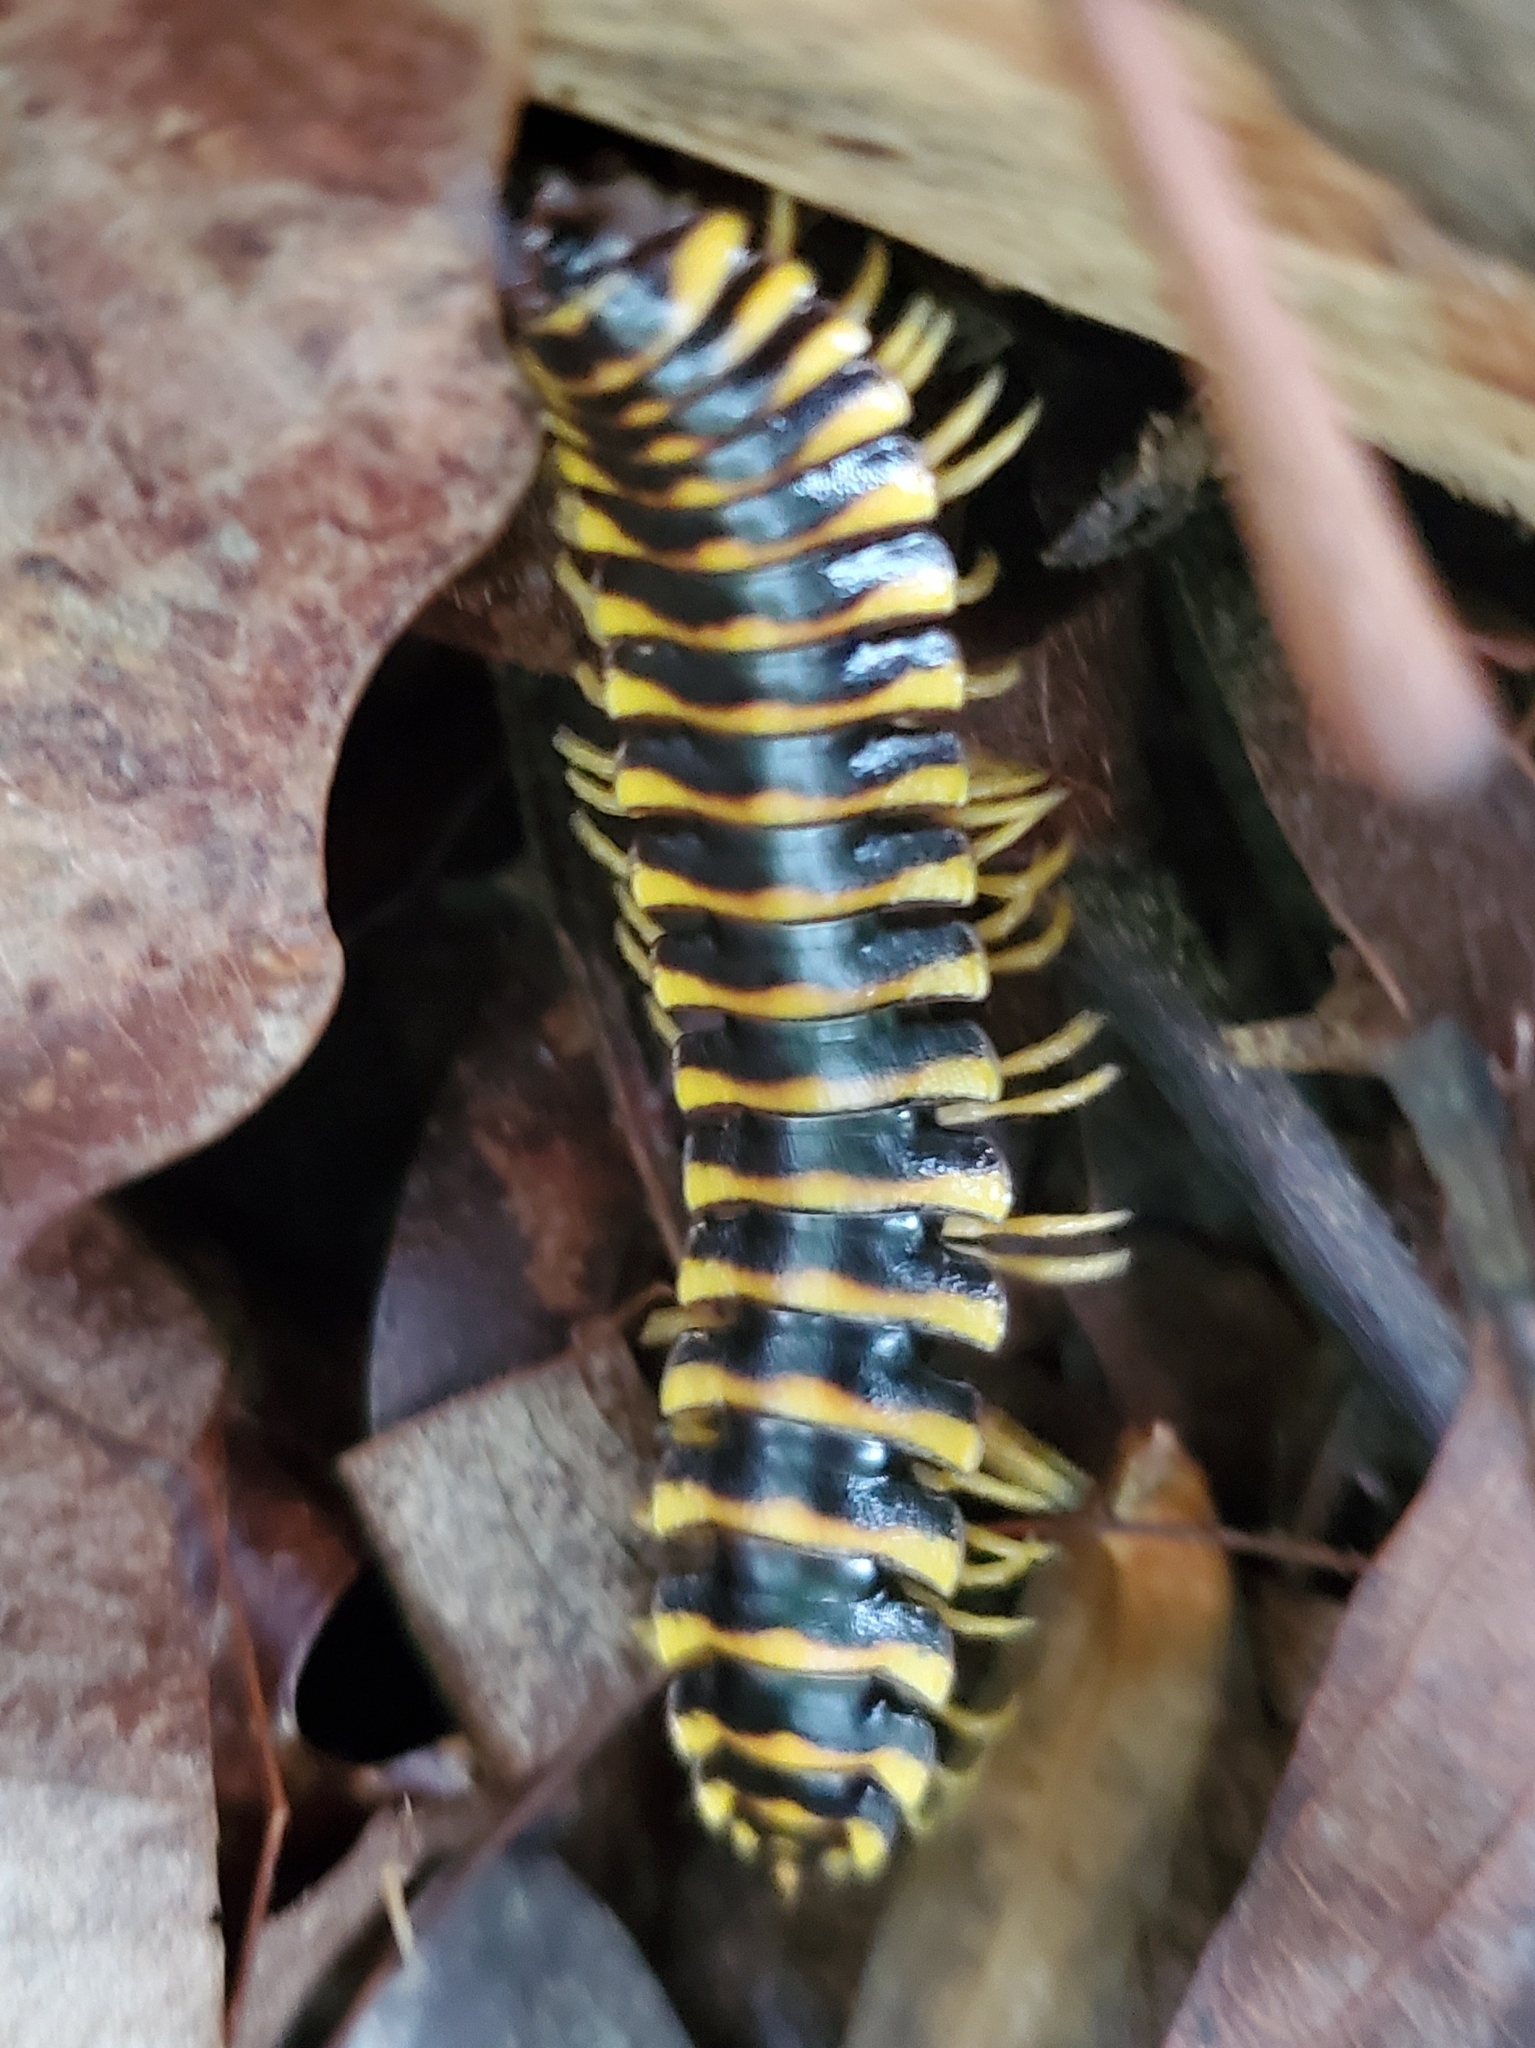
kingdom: Animalia
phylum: Arthropoda
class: Diplopoda
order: Polydesmida
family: Xystodesmidae
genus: Cherokia
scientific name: Cherokia georgiana
